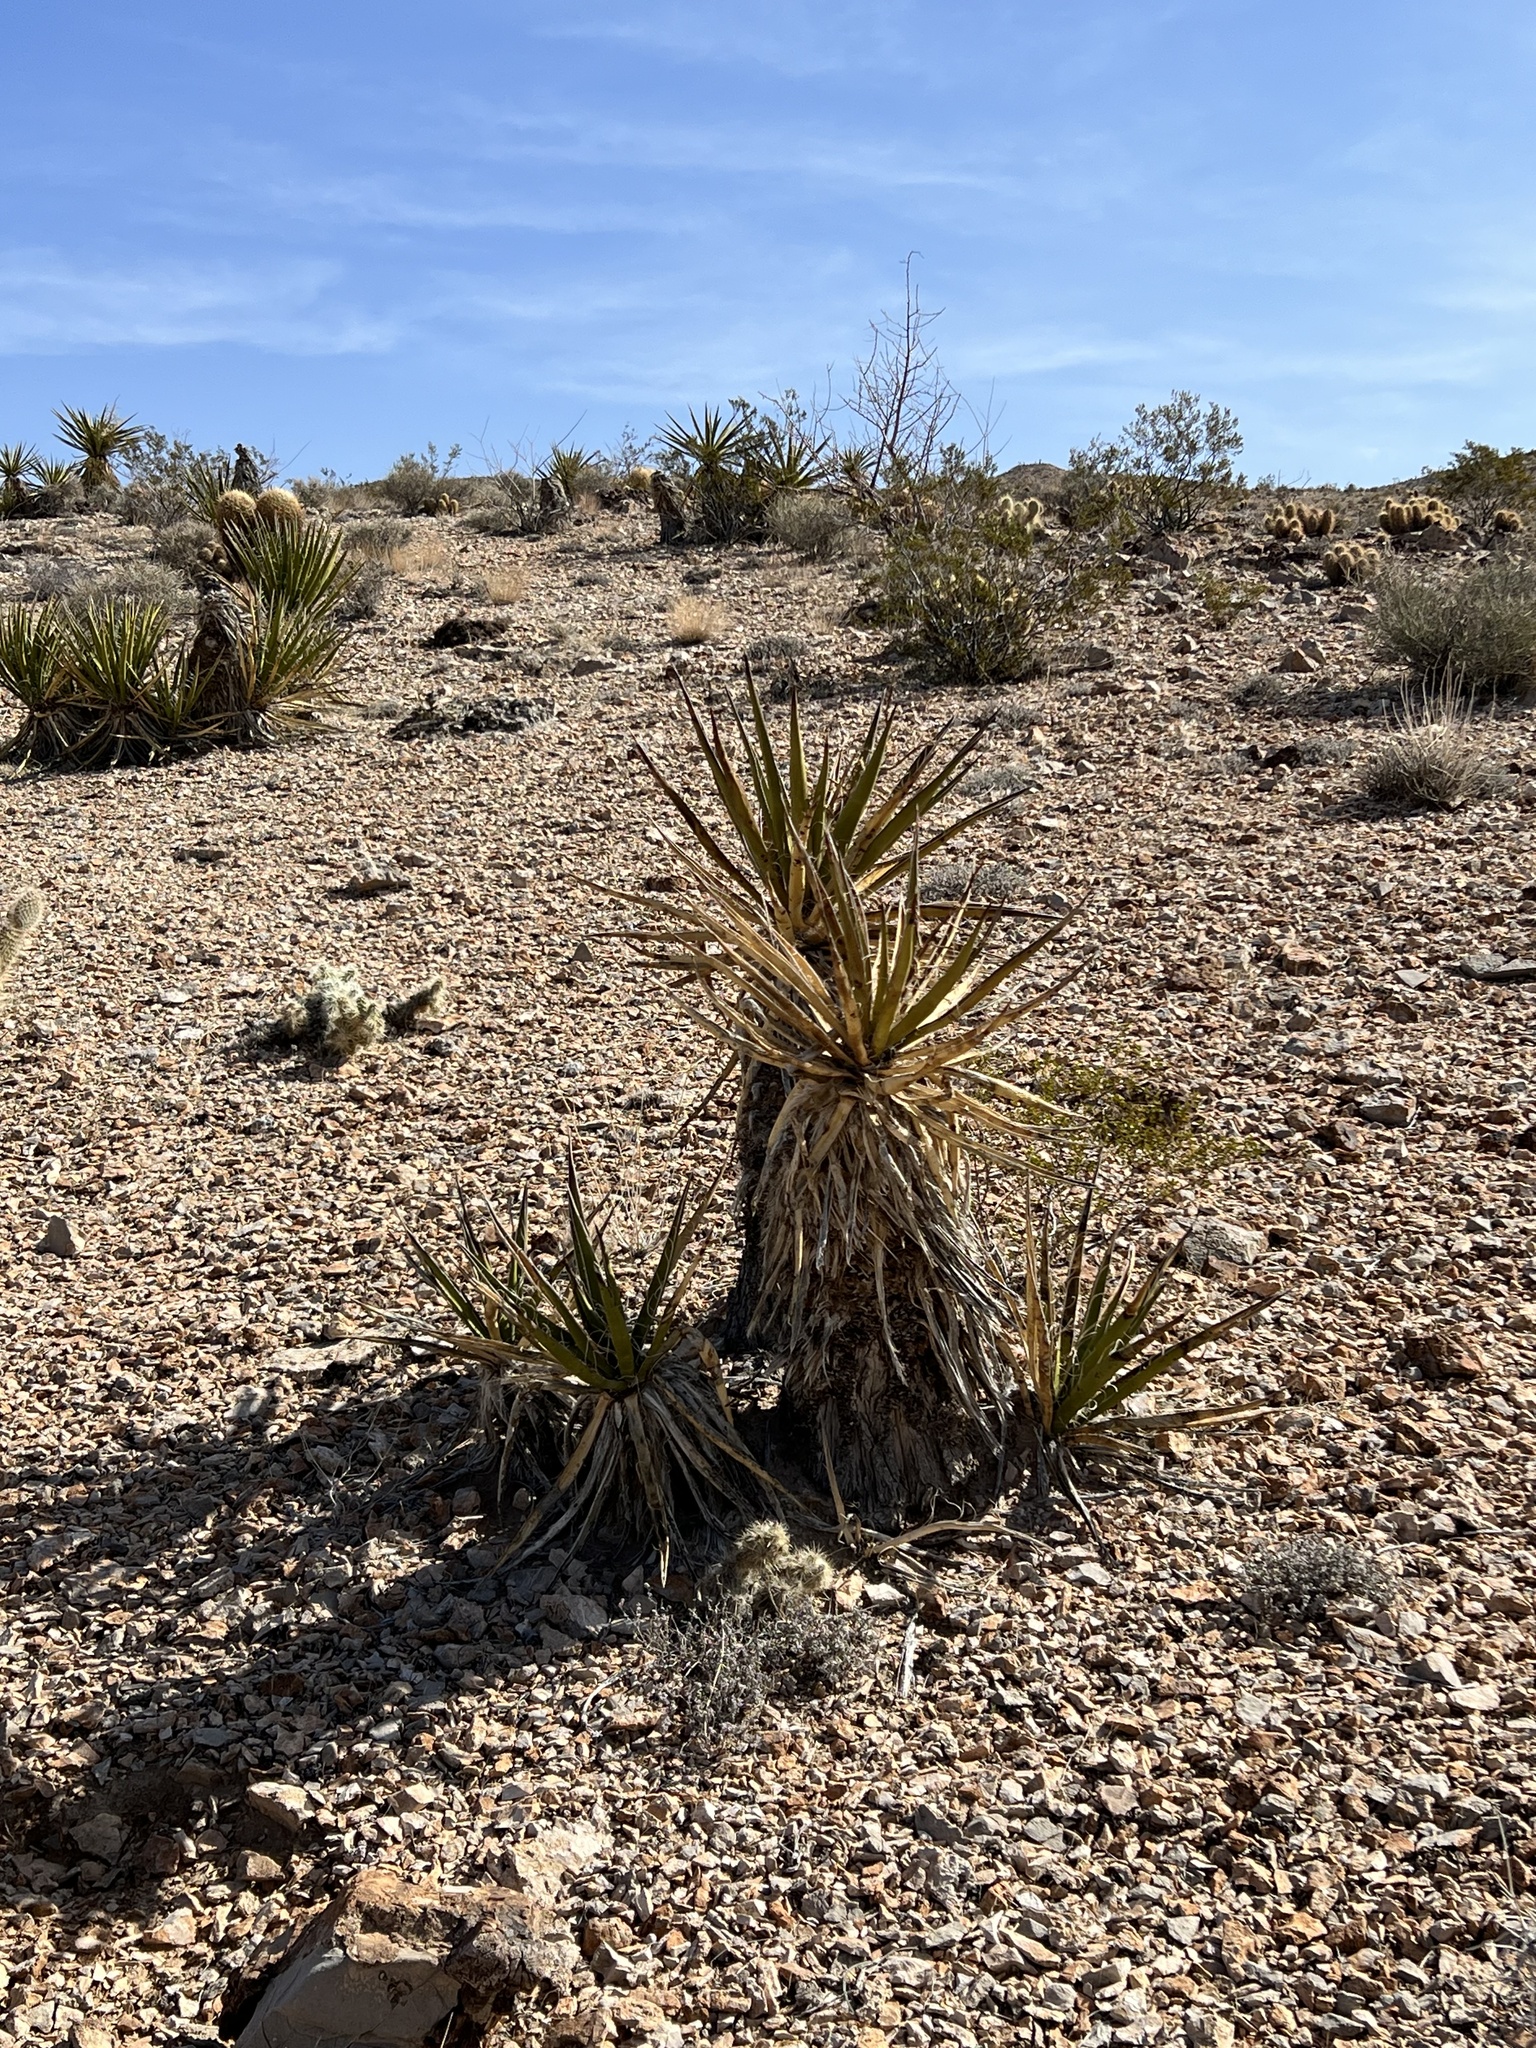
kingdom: Plantae
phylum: Tracheophyta
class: Liliopsida
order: Asparagales
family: Asparagaceae
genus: Yucca
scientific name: Yucca schidigera
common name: Mojave yucca
